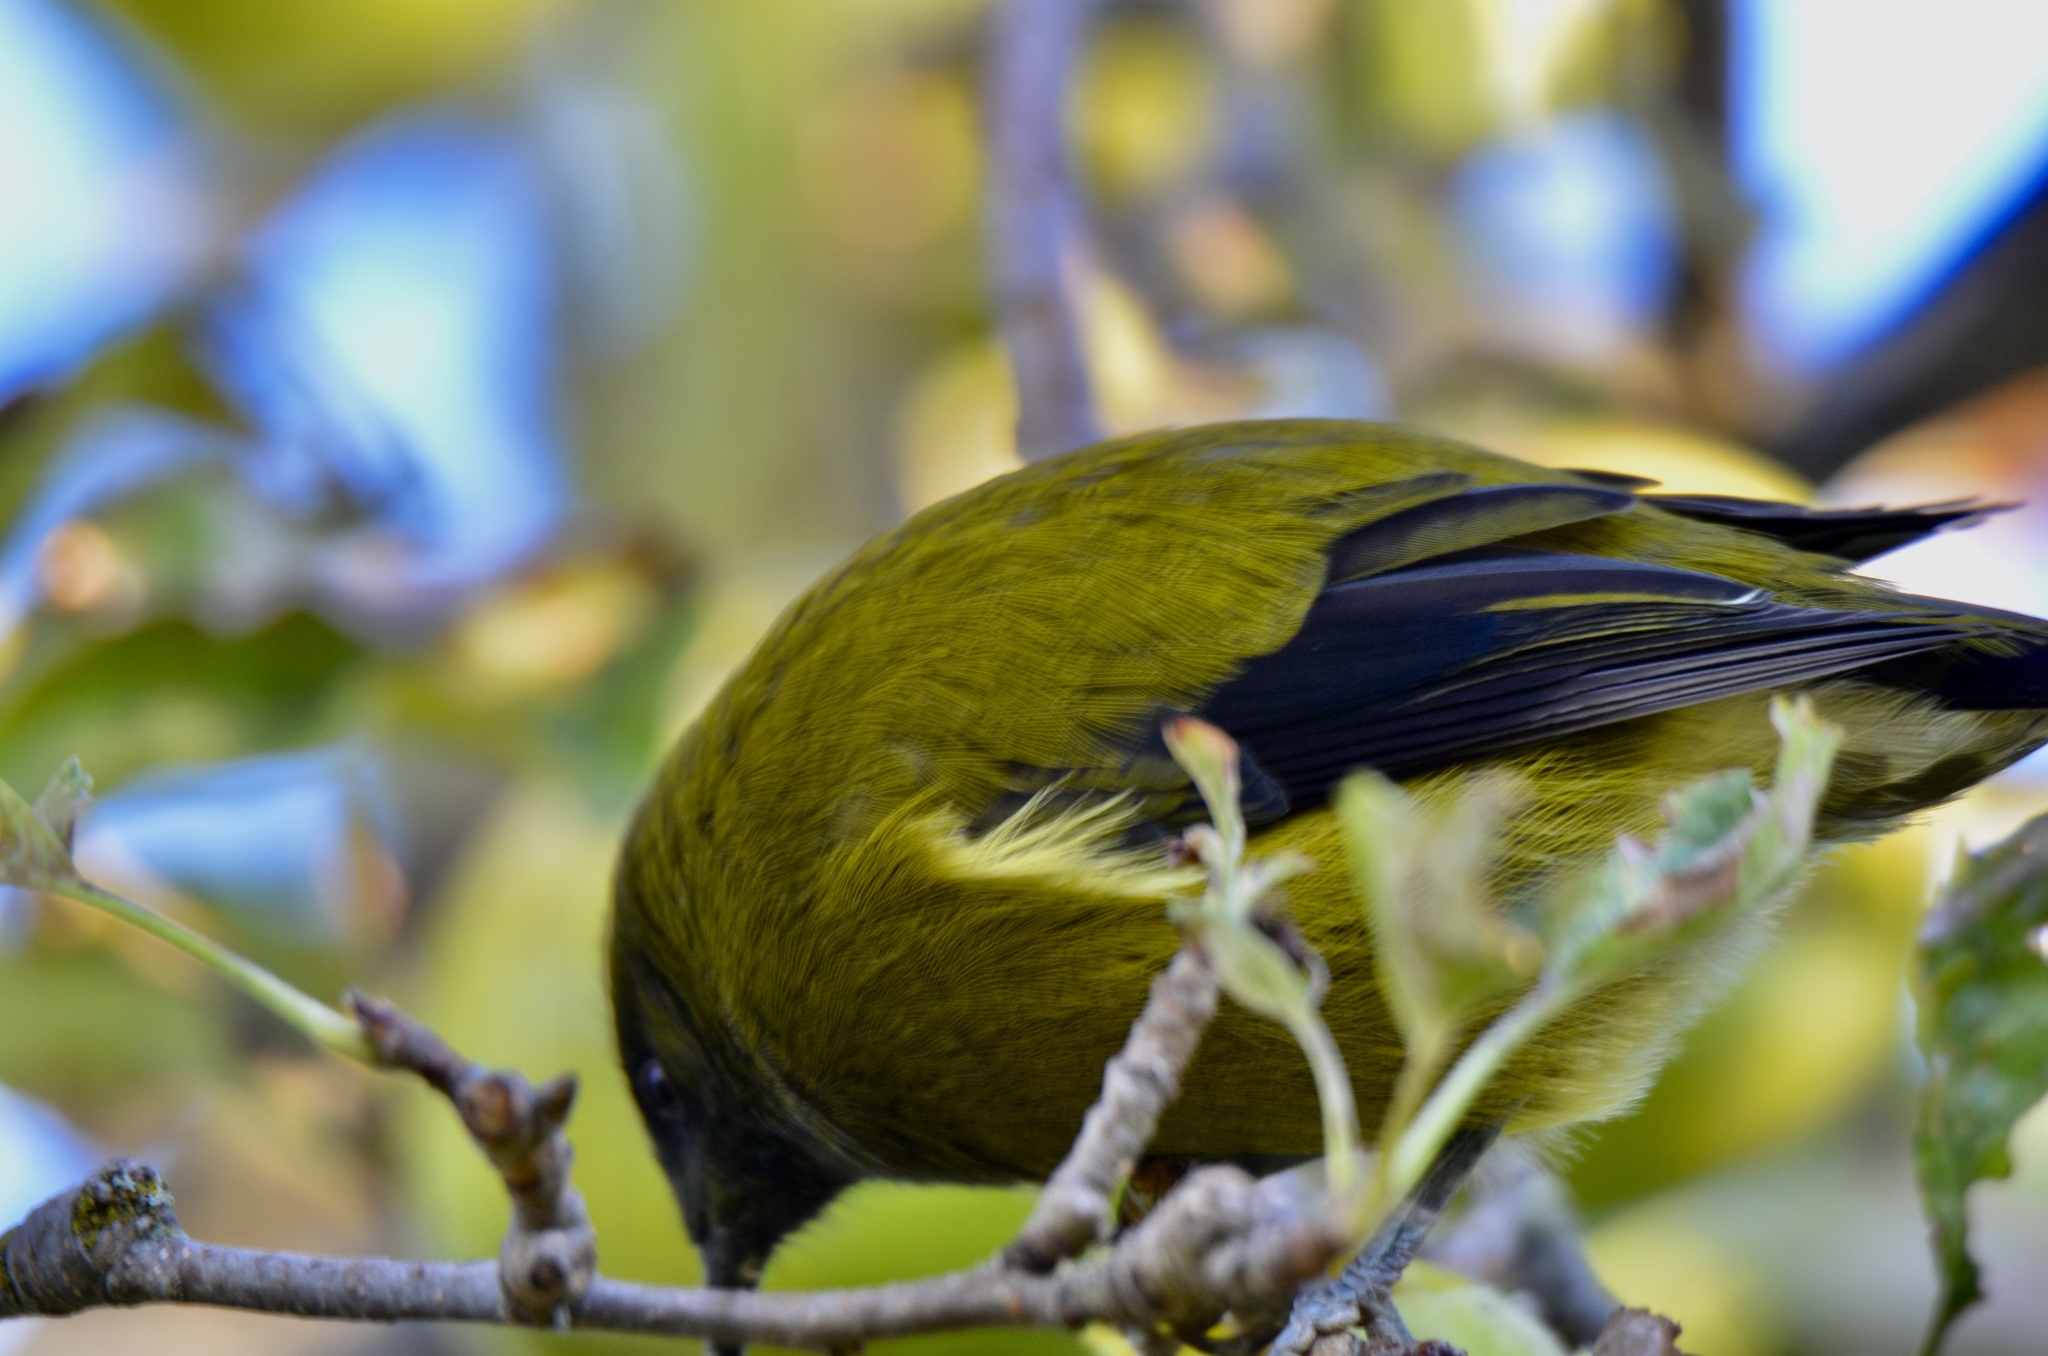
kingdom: Animalia
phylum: Chordata
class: Aves
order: Passeriformes
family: Meliphagidae
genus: Anthornis
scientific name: Anthornis melanura
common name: New zealand bellbird
